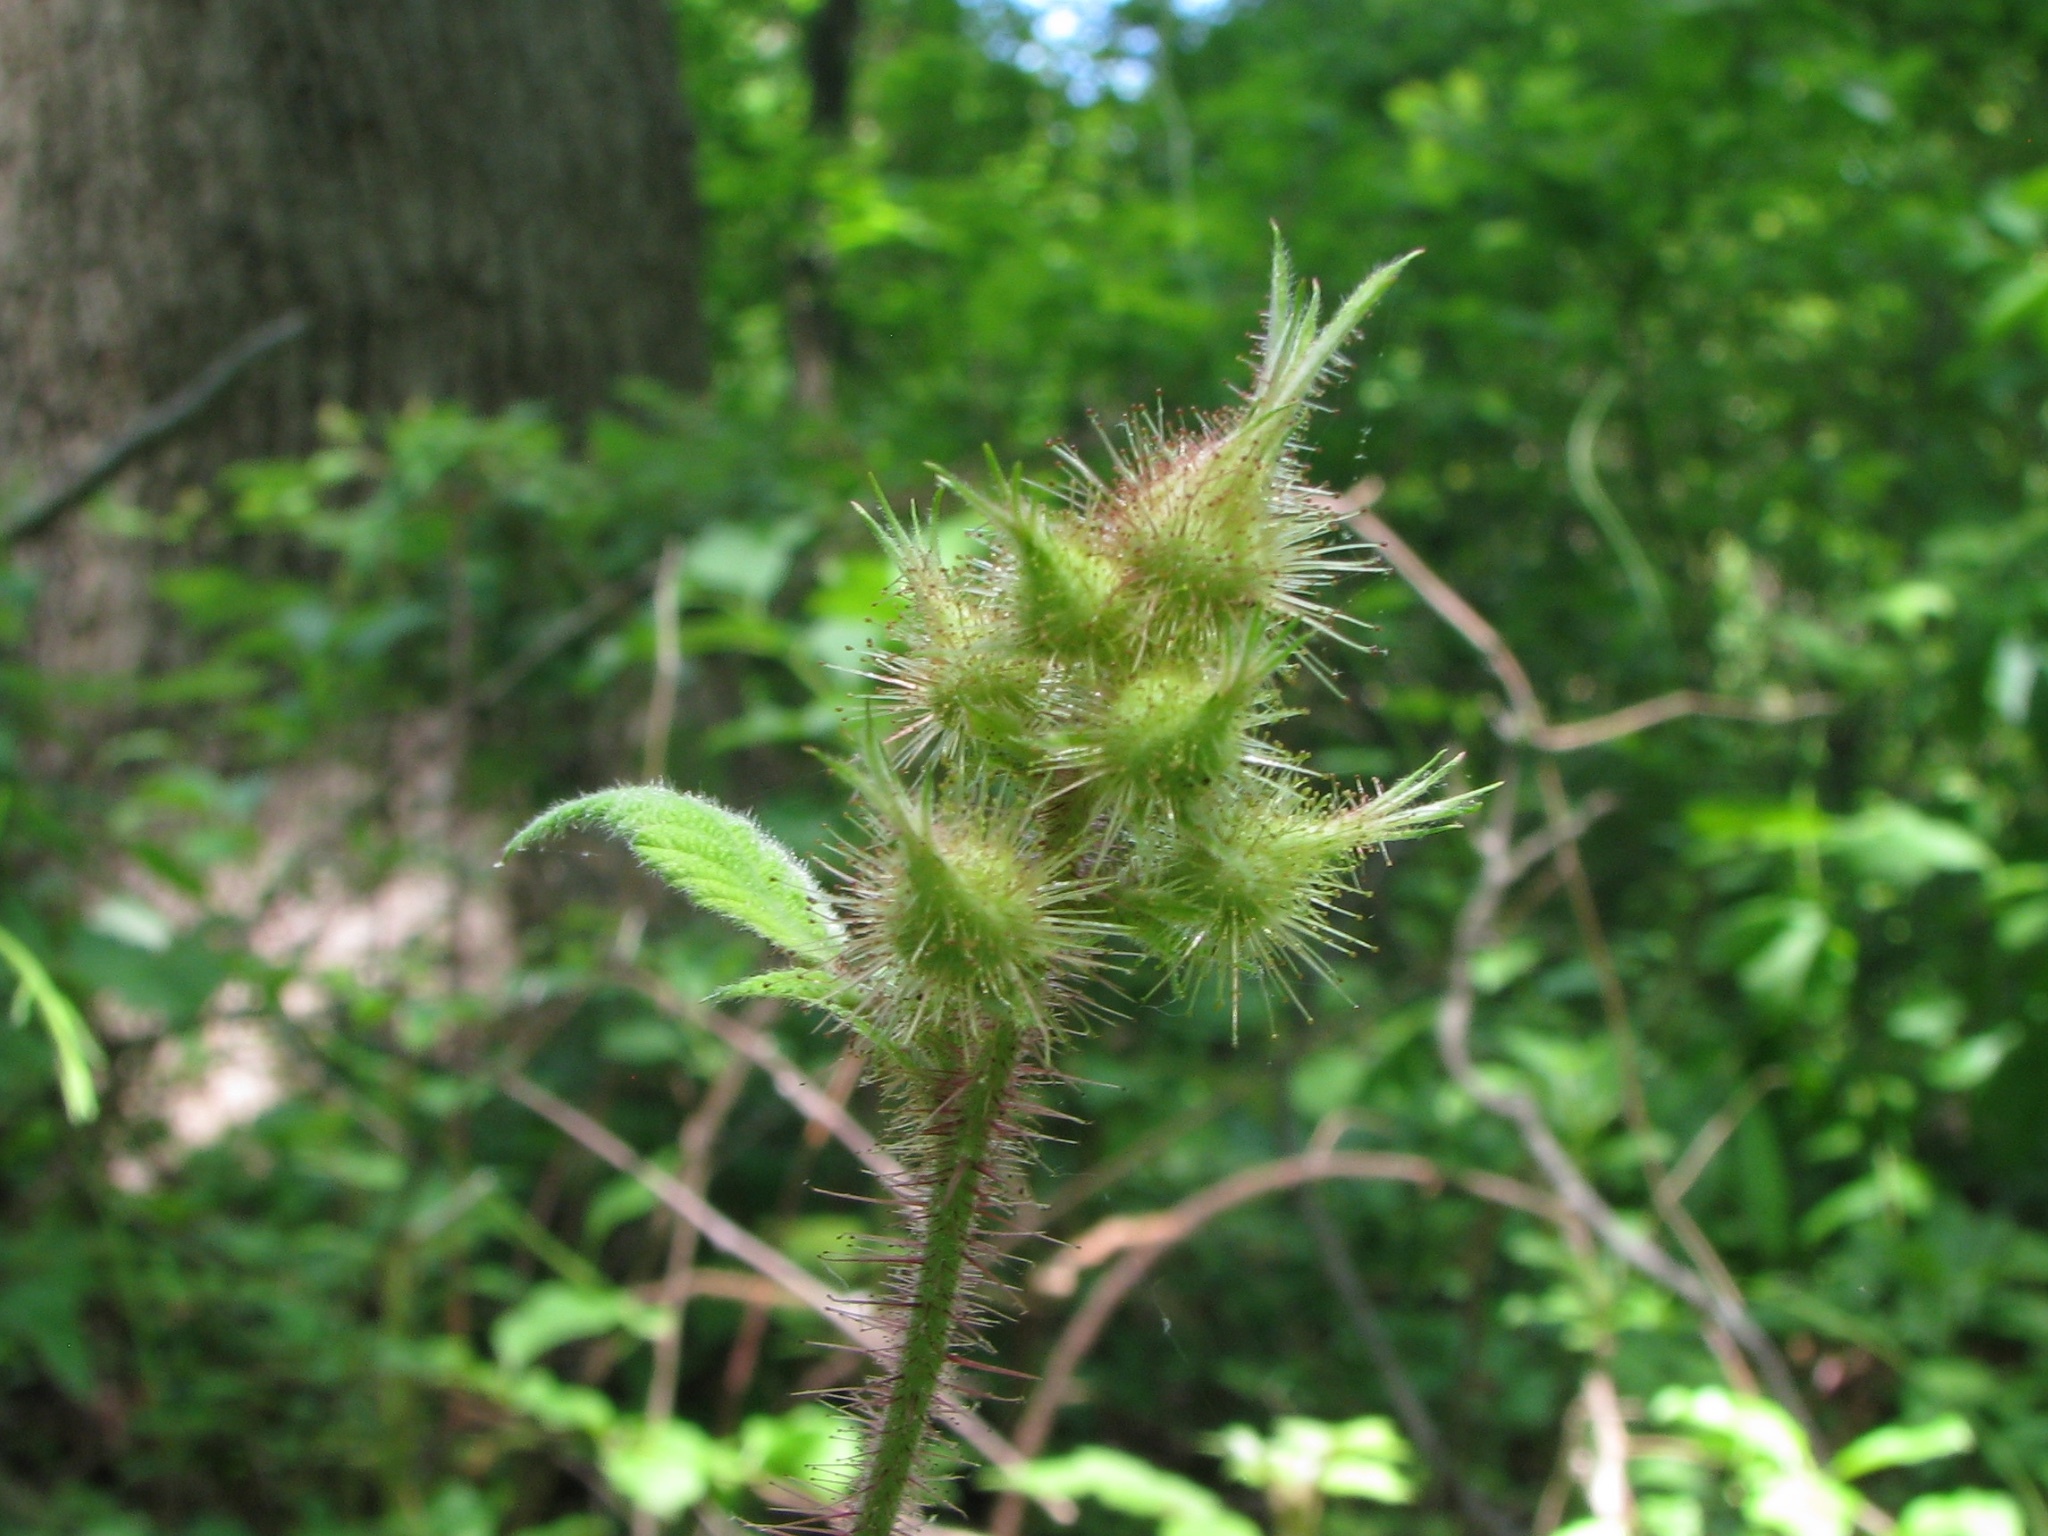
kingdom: Plantae
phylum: Tracheophyta
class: Magnoliopsida
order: Rosales
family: Rosaceae
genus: Rubus
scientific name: Rubus phoenicolasius
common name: Japanese wineberry
